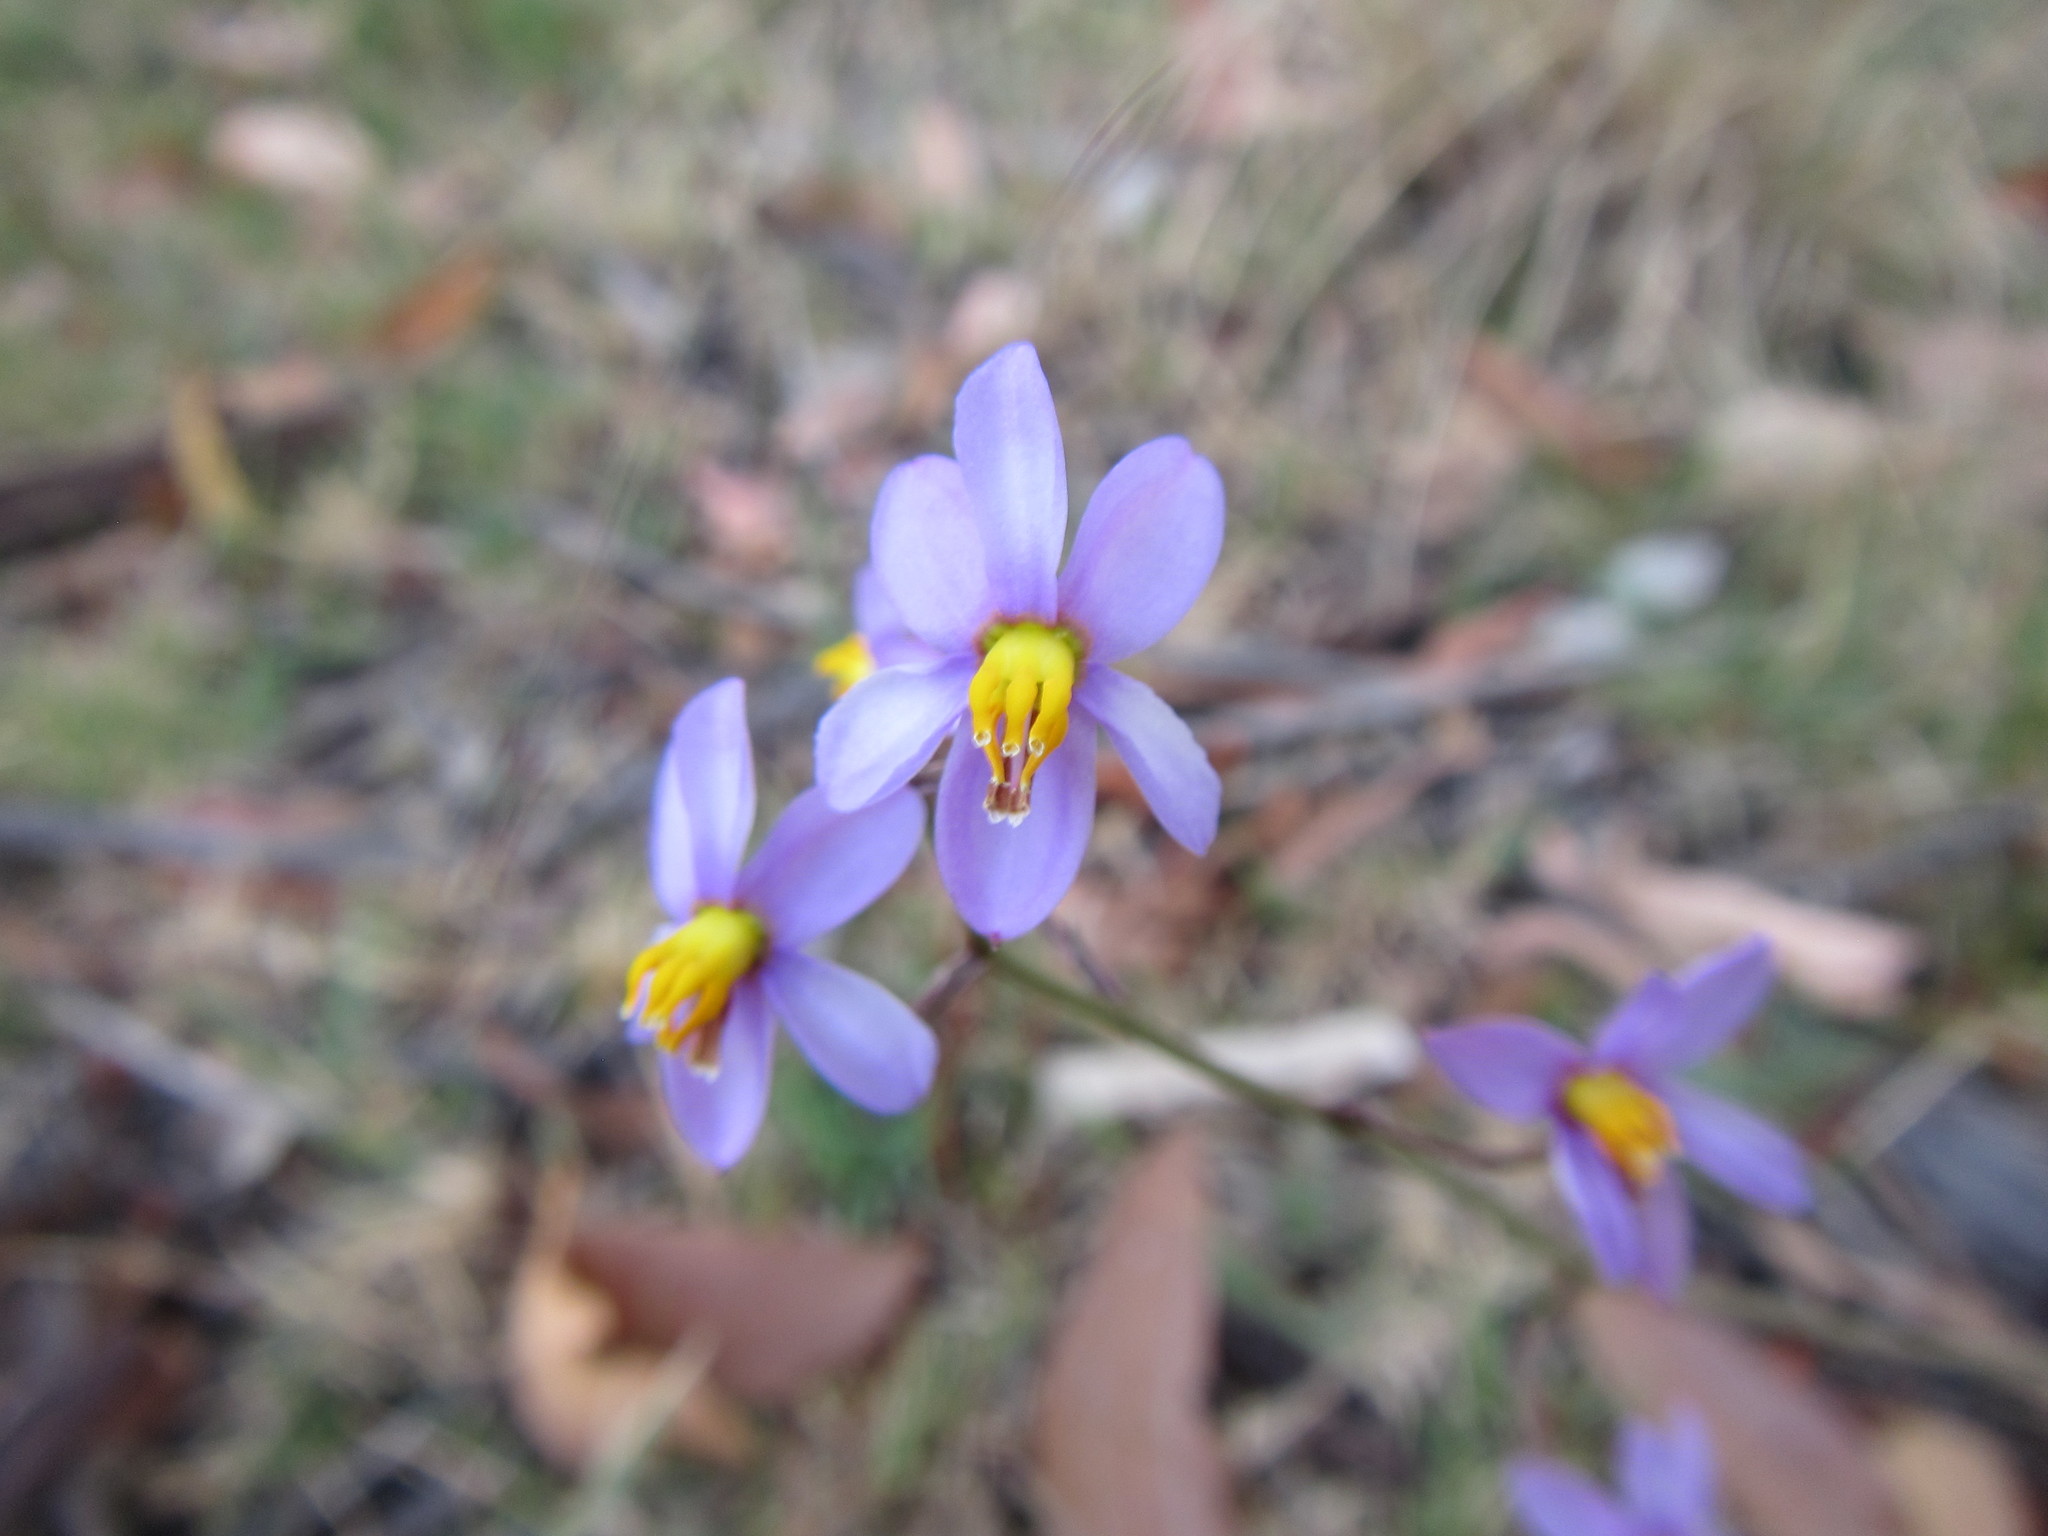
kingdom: Plantae
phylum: Tracheophyta
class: Liliopsida
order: Asparagales
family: Tecophilaeaceae
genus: Cyanella
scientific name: Cyanella hyacinthoides
